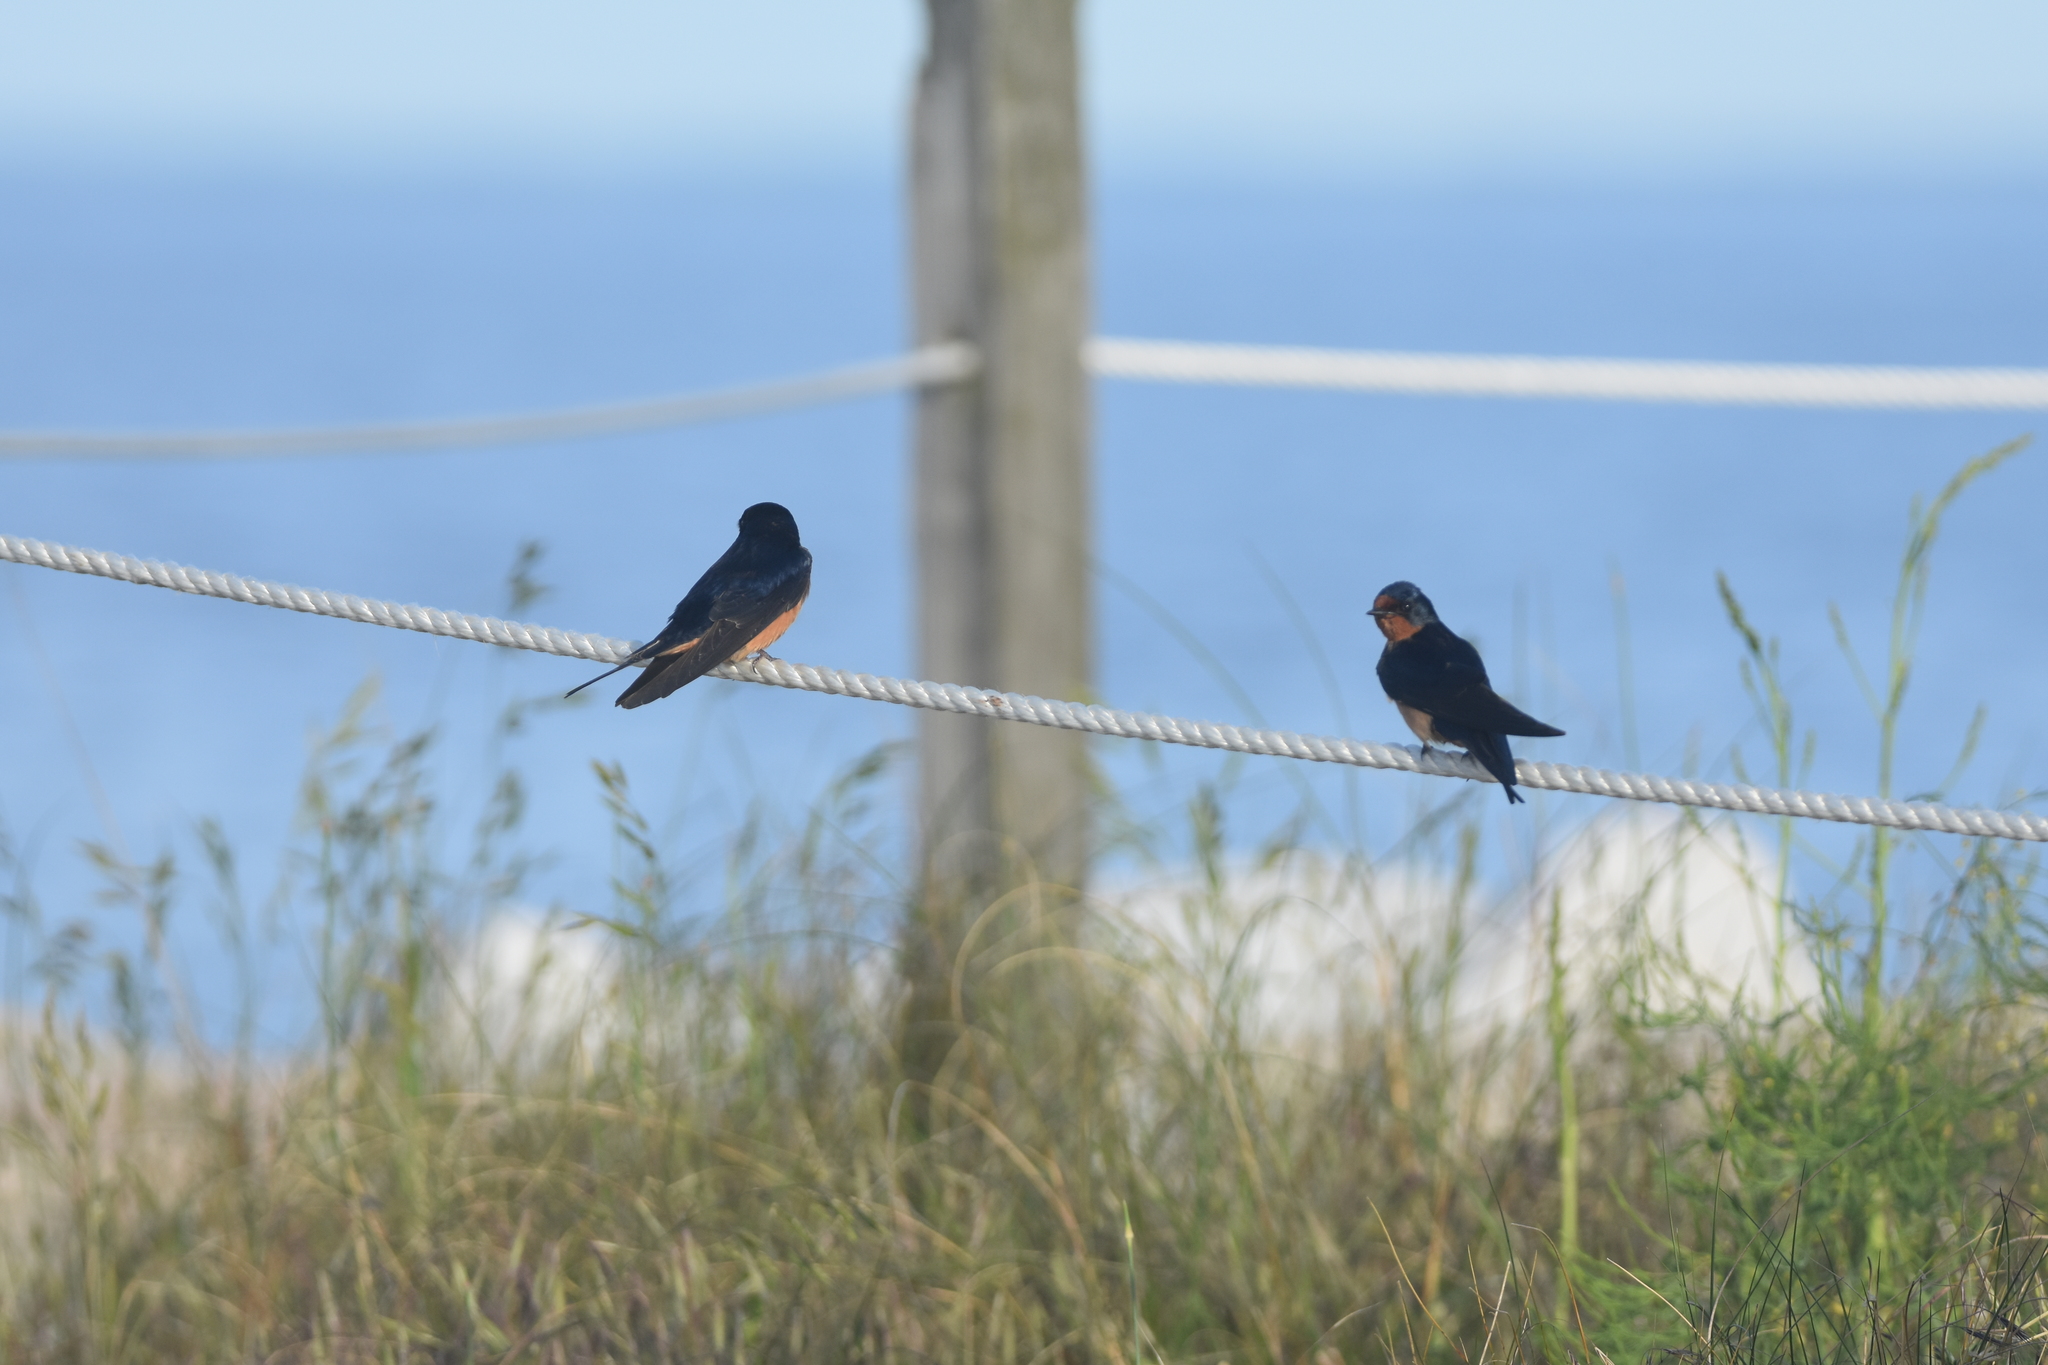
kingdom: Animalia
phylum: Chordata
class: Aves
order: Passeriformes
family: Hirundinidae
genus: Hirundo
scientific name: Hirundo rustica
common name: Barn swallow
